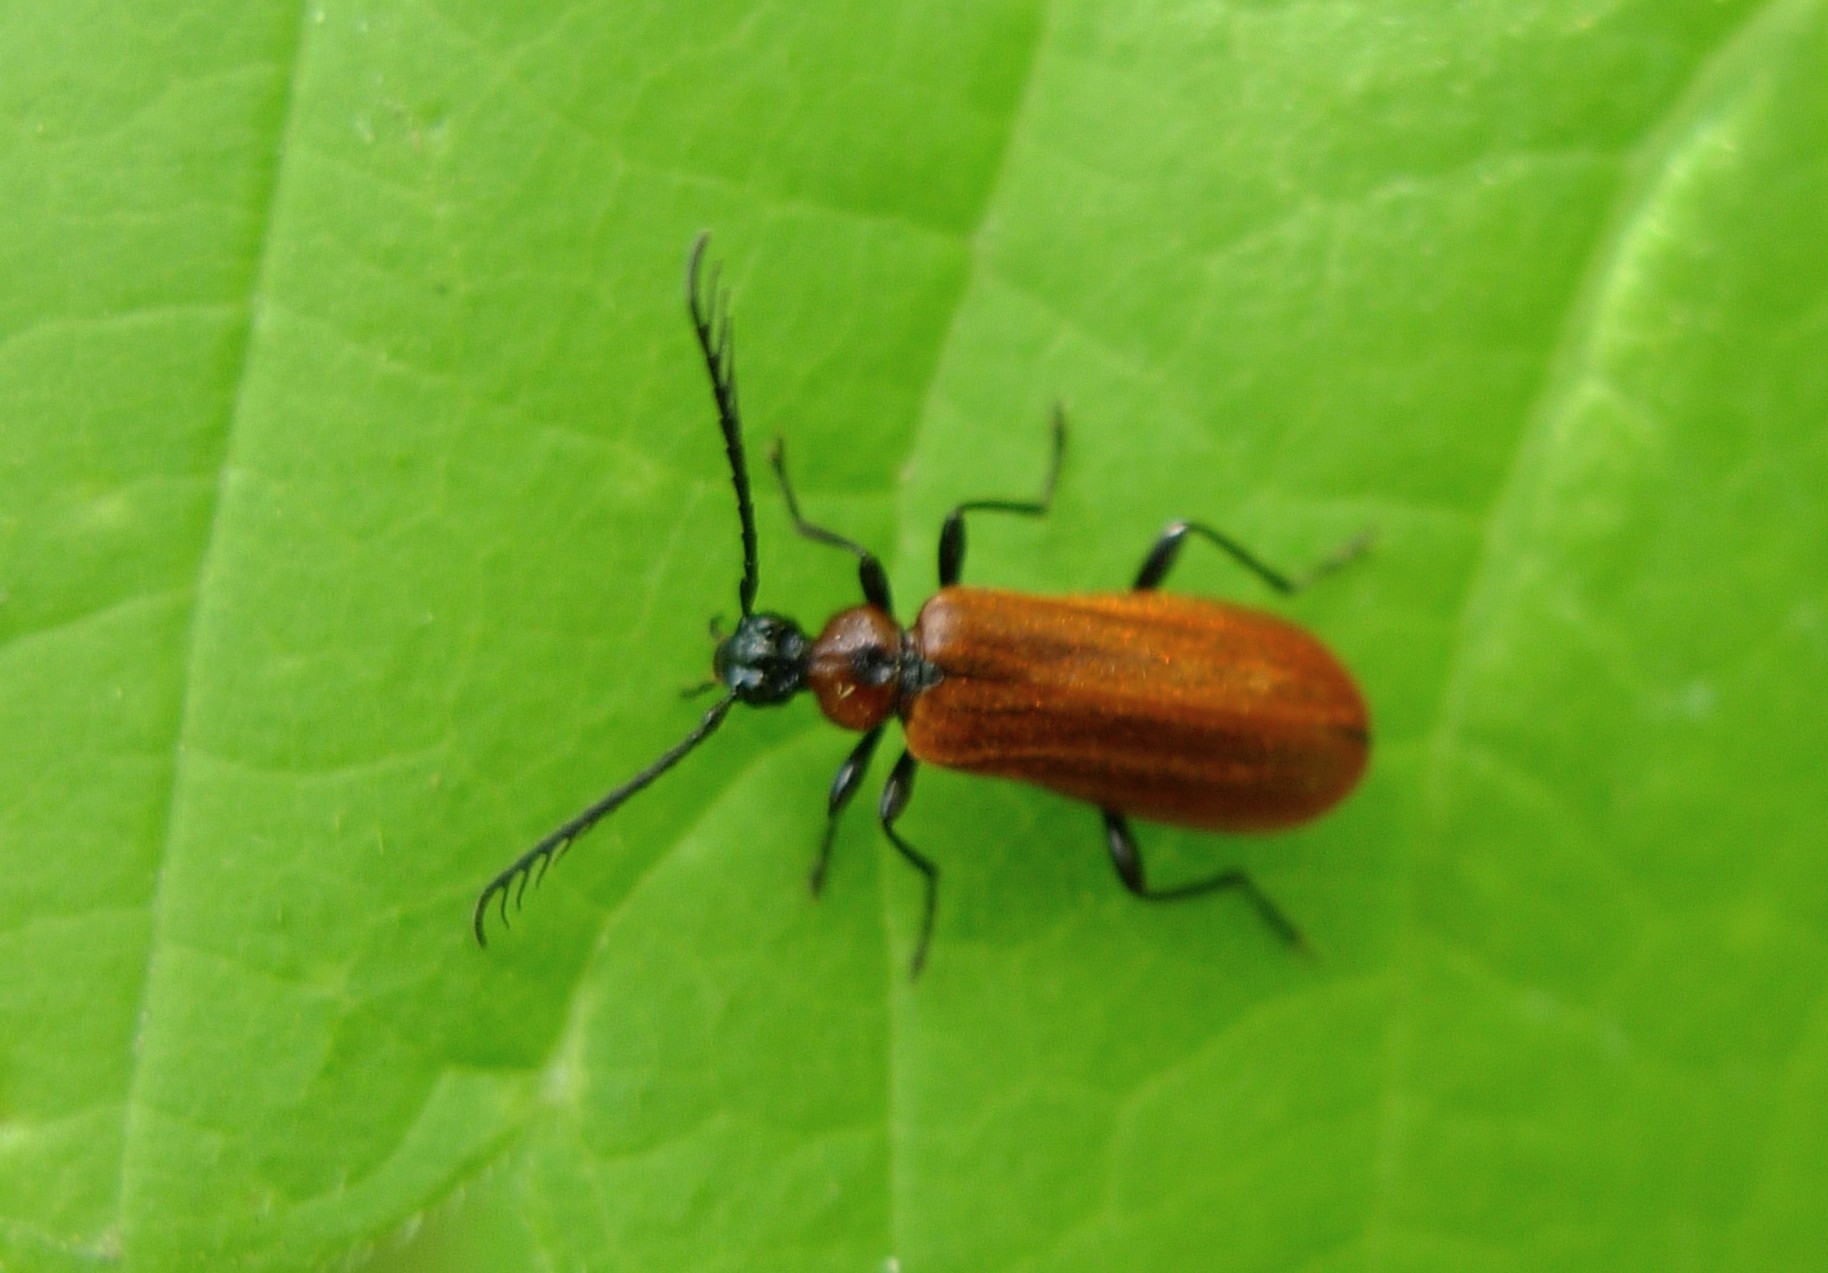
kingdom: Animalia
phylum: Arthropoda
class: Insecta
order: Coleoptera
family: Pyrochroidae
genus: Schizotus
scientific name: Schizotus pectinicornis
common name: Scarce cardinal beetle
